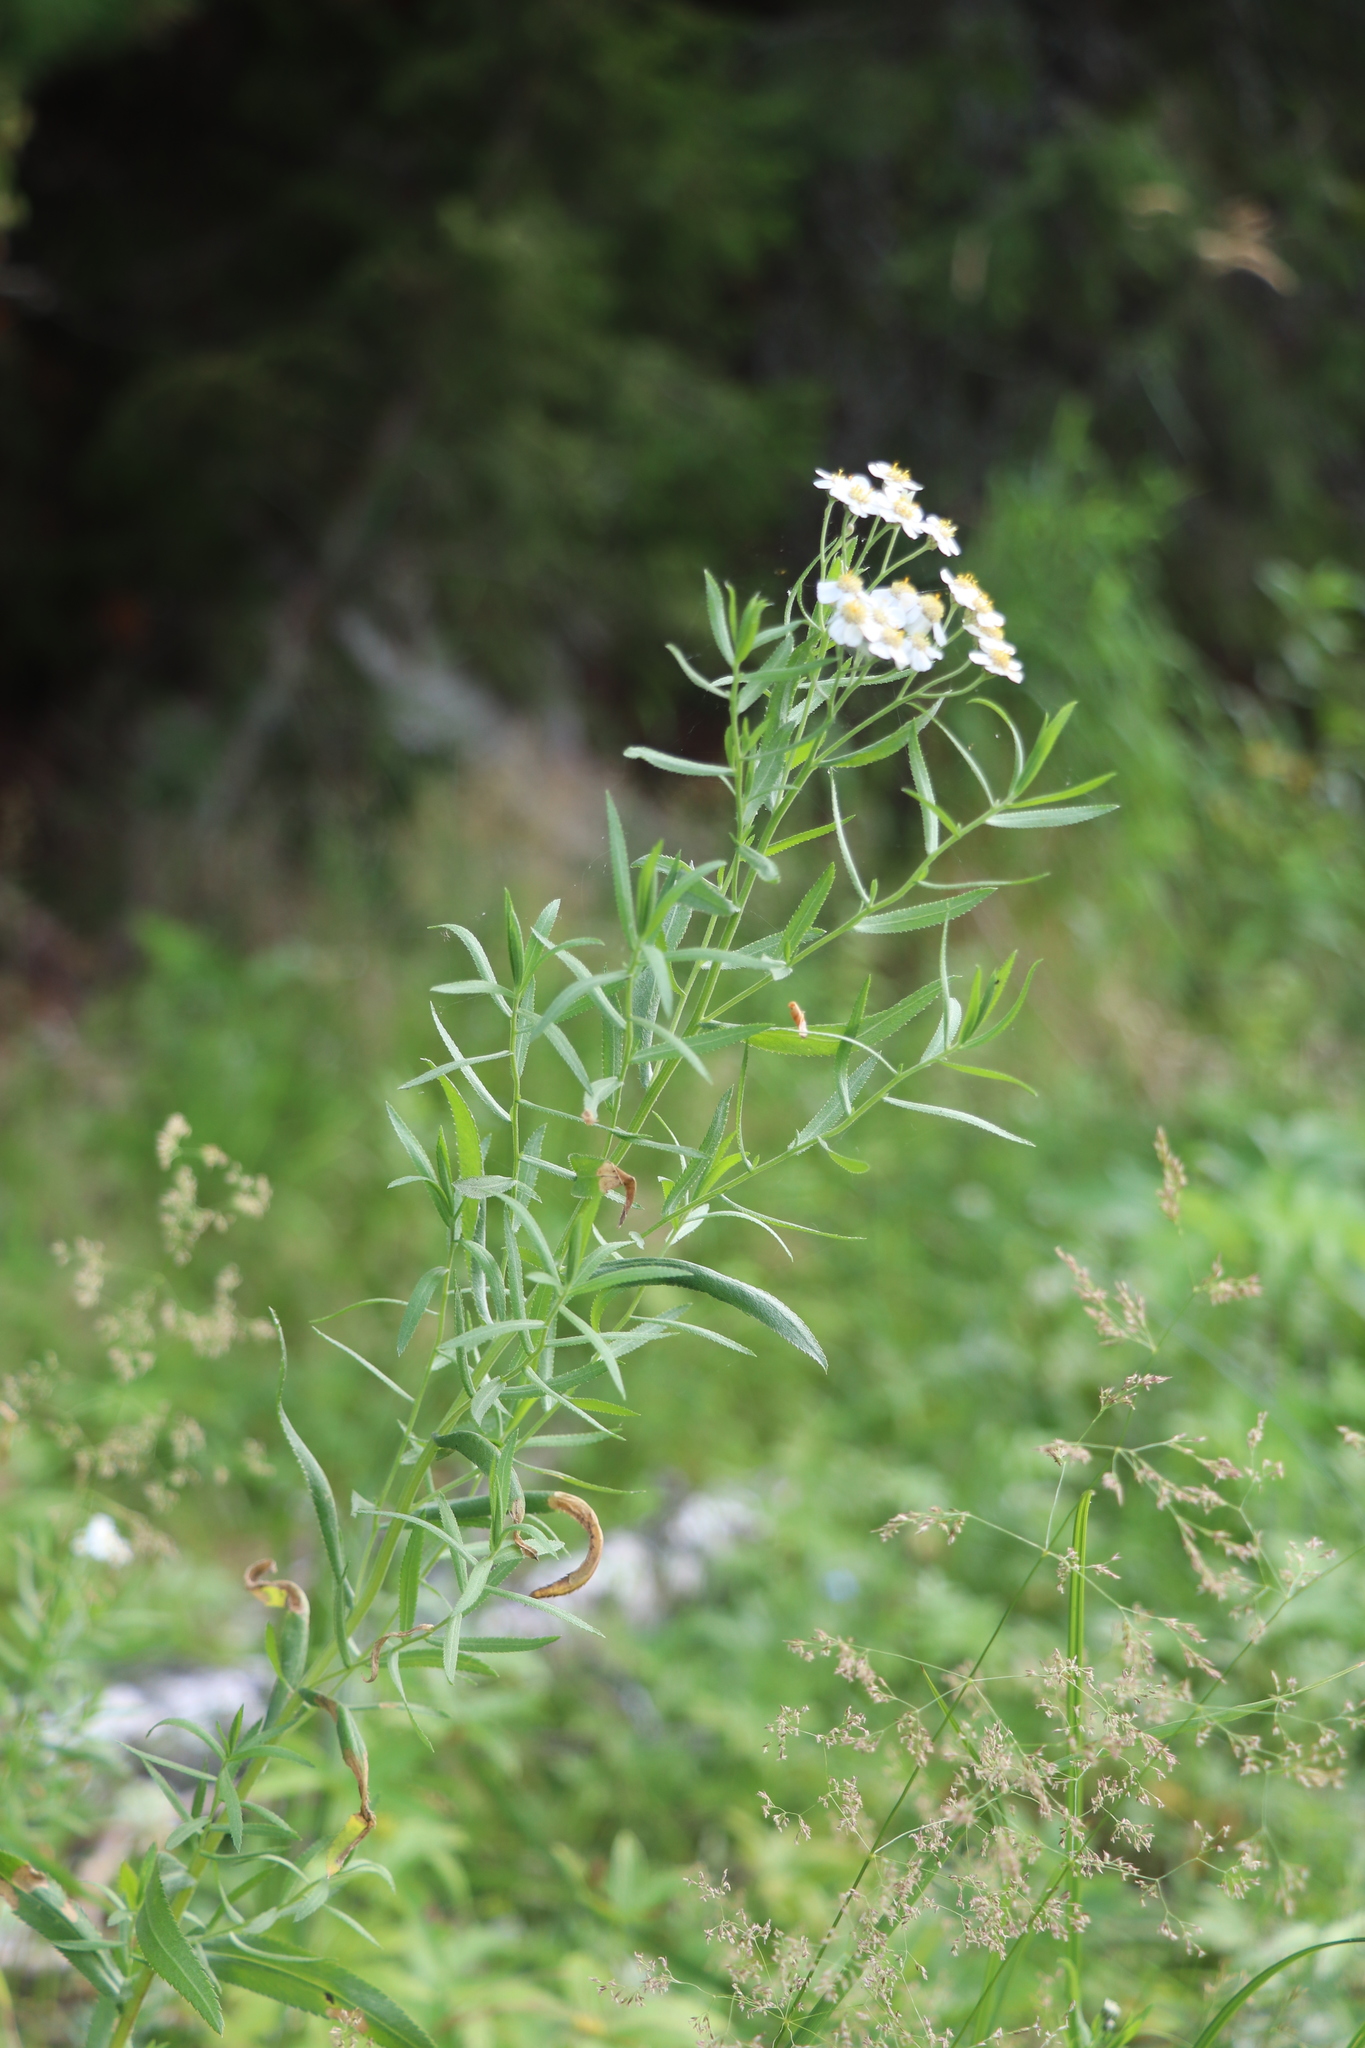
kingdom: Plantae
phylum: Tracheophyta
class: Magnoliopsida
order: Asterales
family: Asteraceae
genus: Achillea
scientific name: Achillea salicifolia
